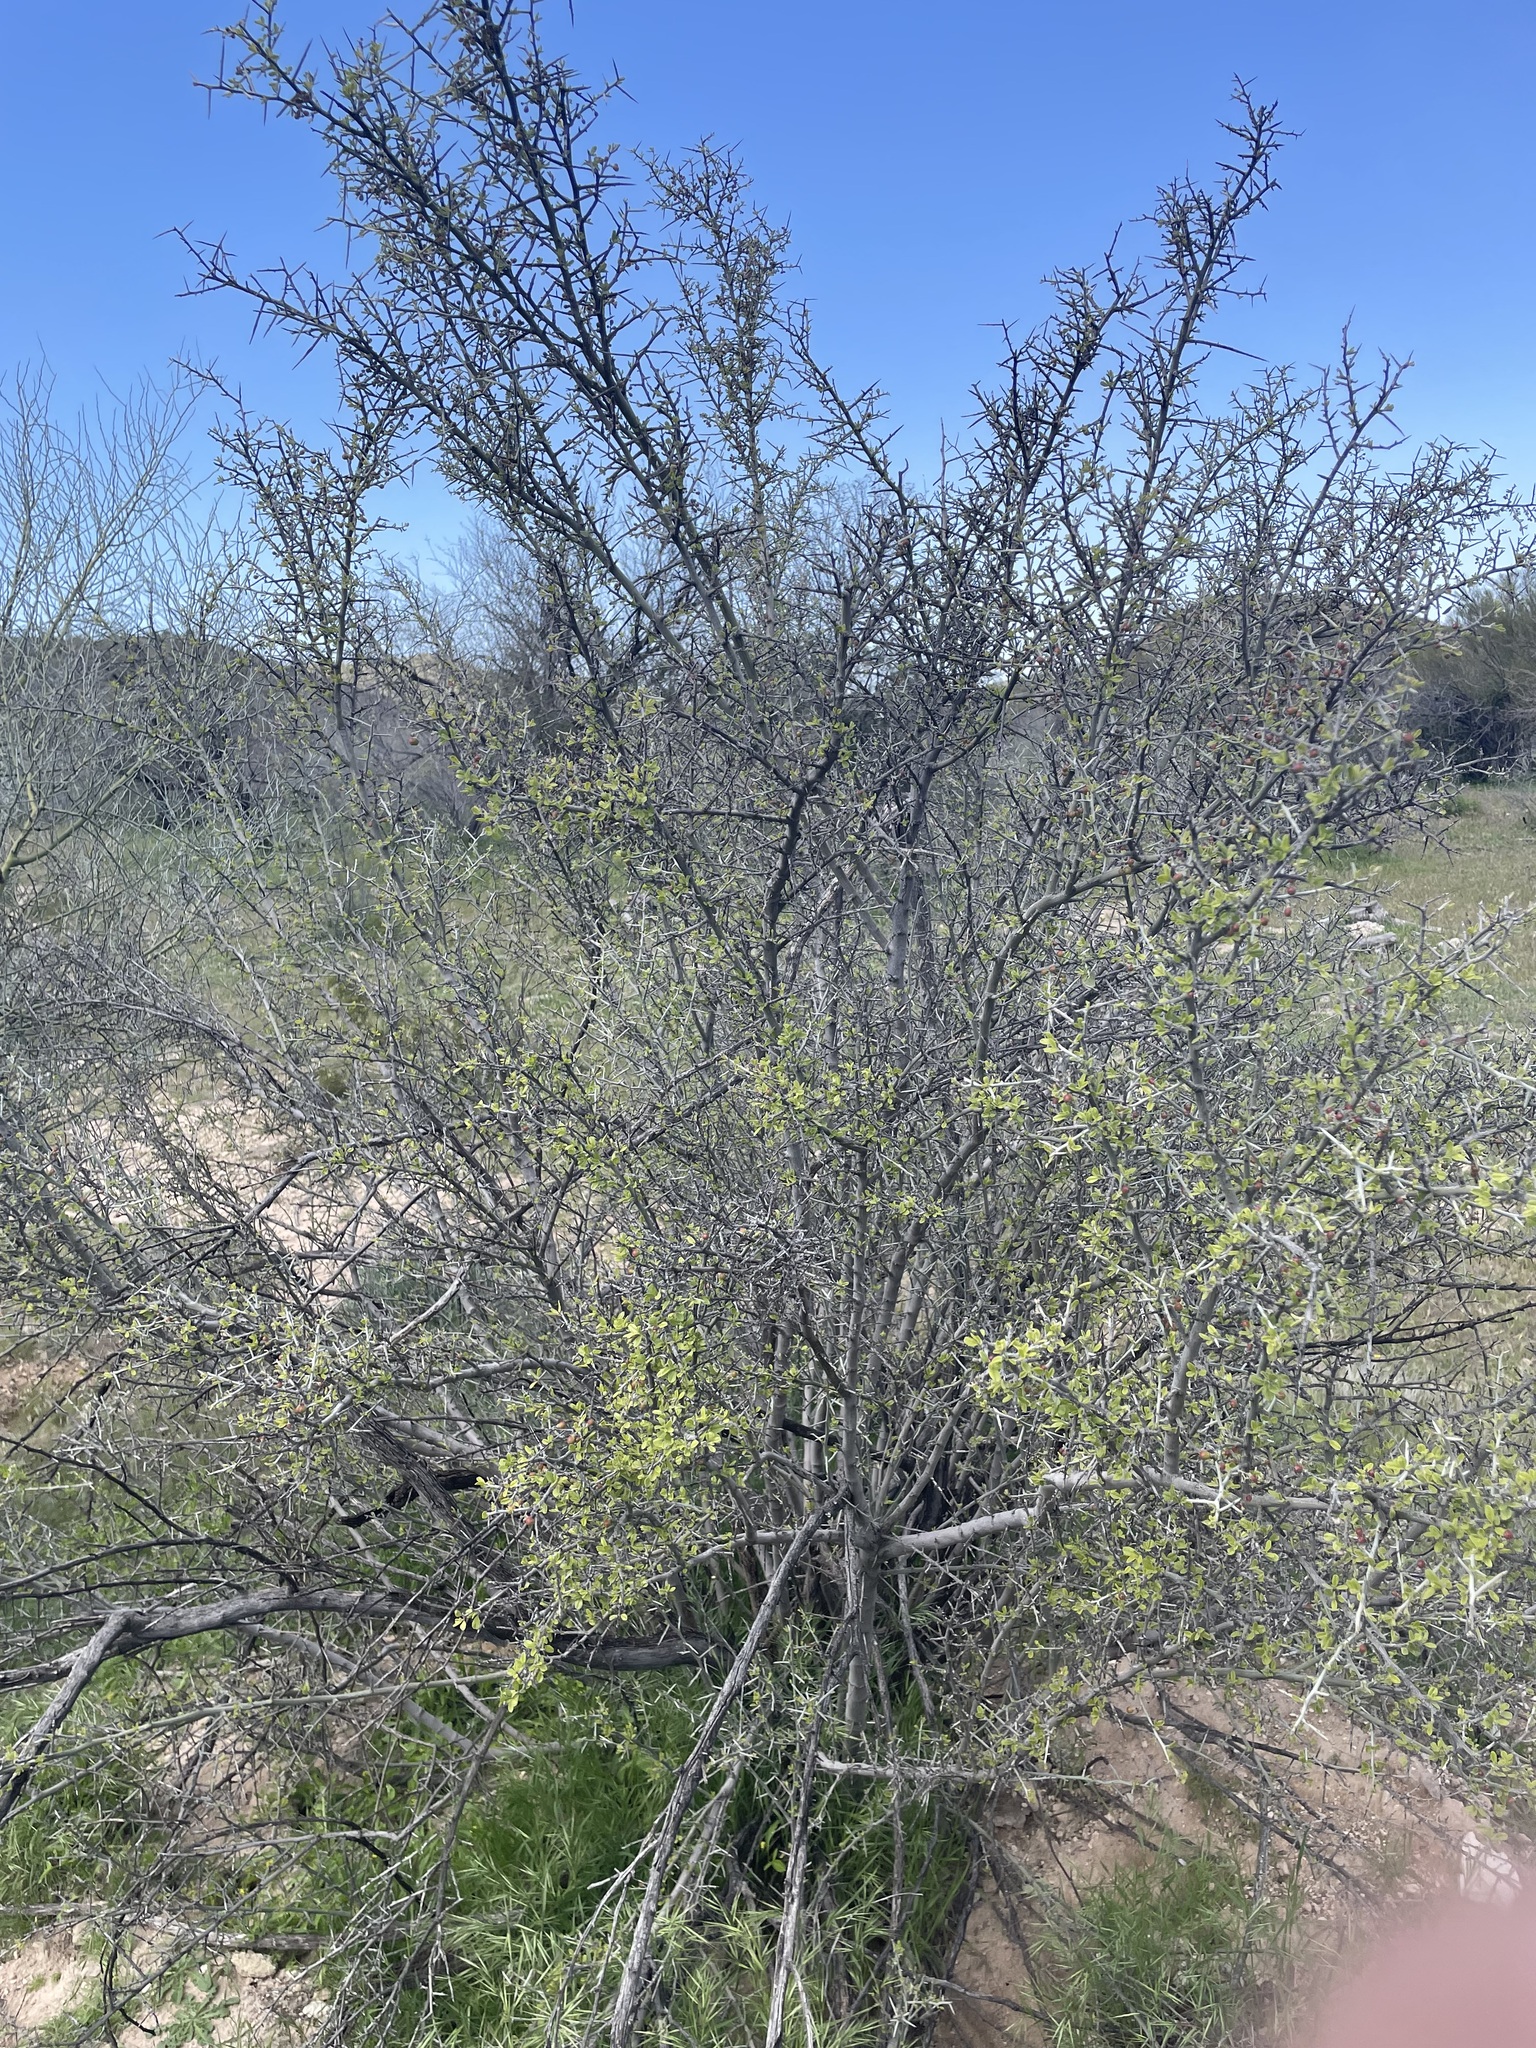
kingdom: Plantae
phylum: Tracheophyta
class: Magnoliopsida
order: Rosales
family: Rhamnaceae
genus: Sarcomphalus
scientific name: Sarcomphalus obtusifolius
